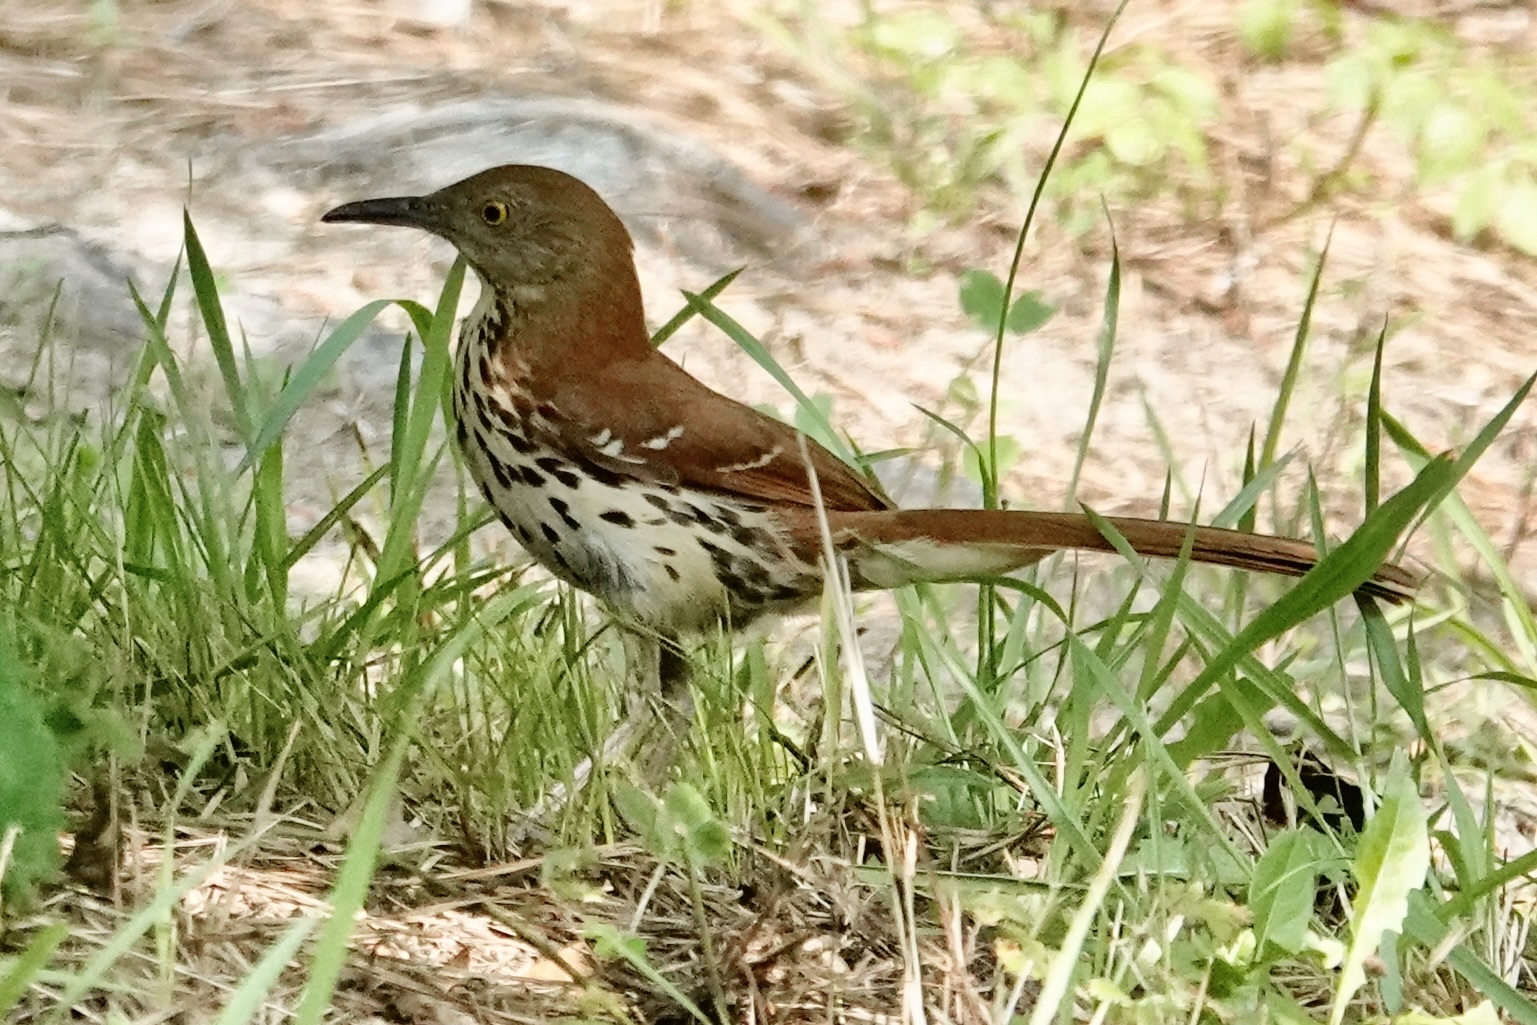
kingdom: Animalia
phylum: Chordata
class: Aves
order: Passeriformes
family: Mimidae
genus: Toxostoma
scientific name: Toxostoma rufum
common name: Brown thrasher
